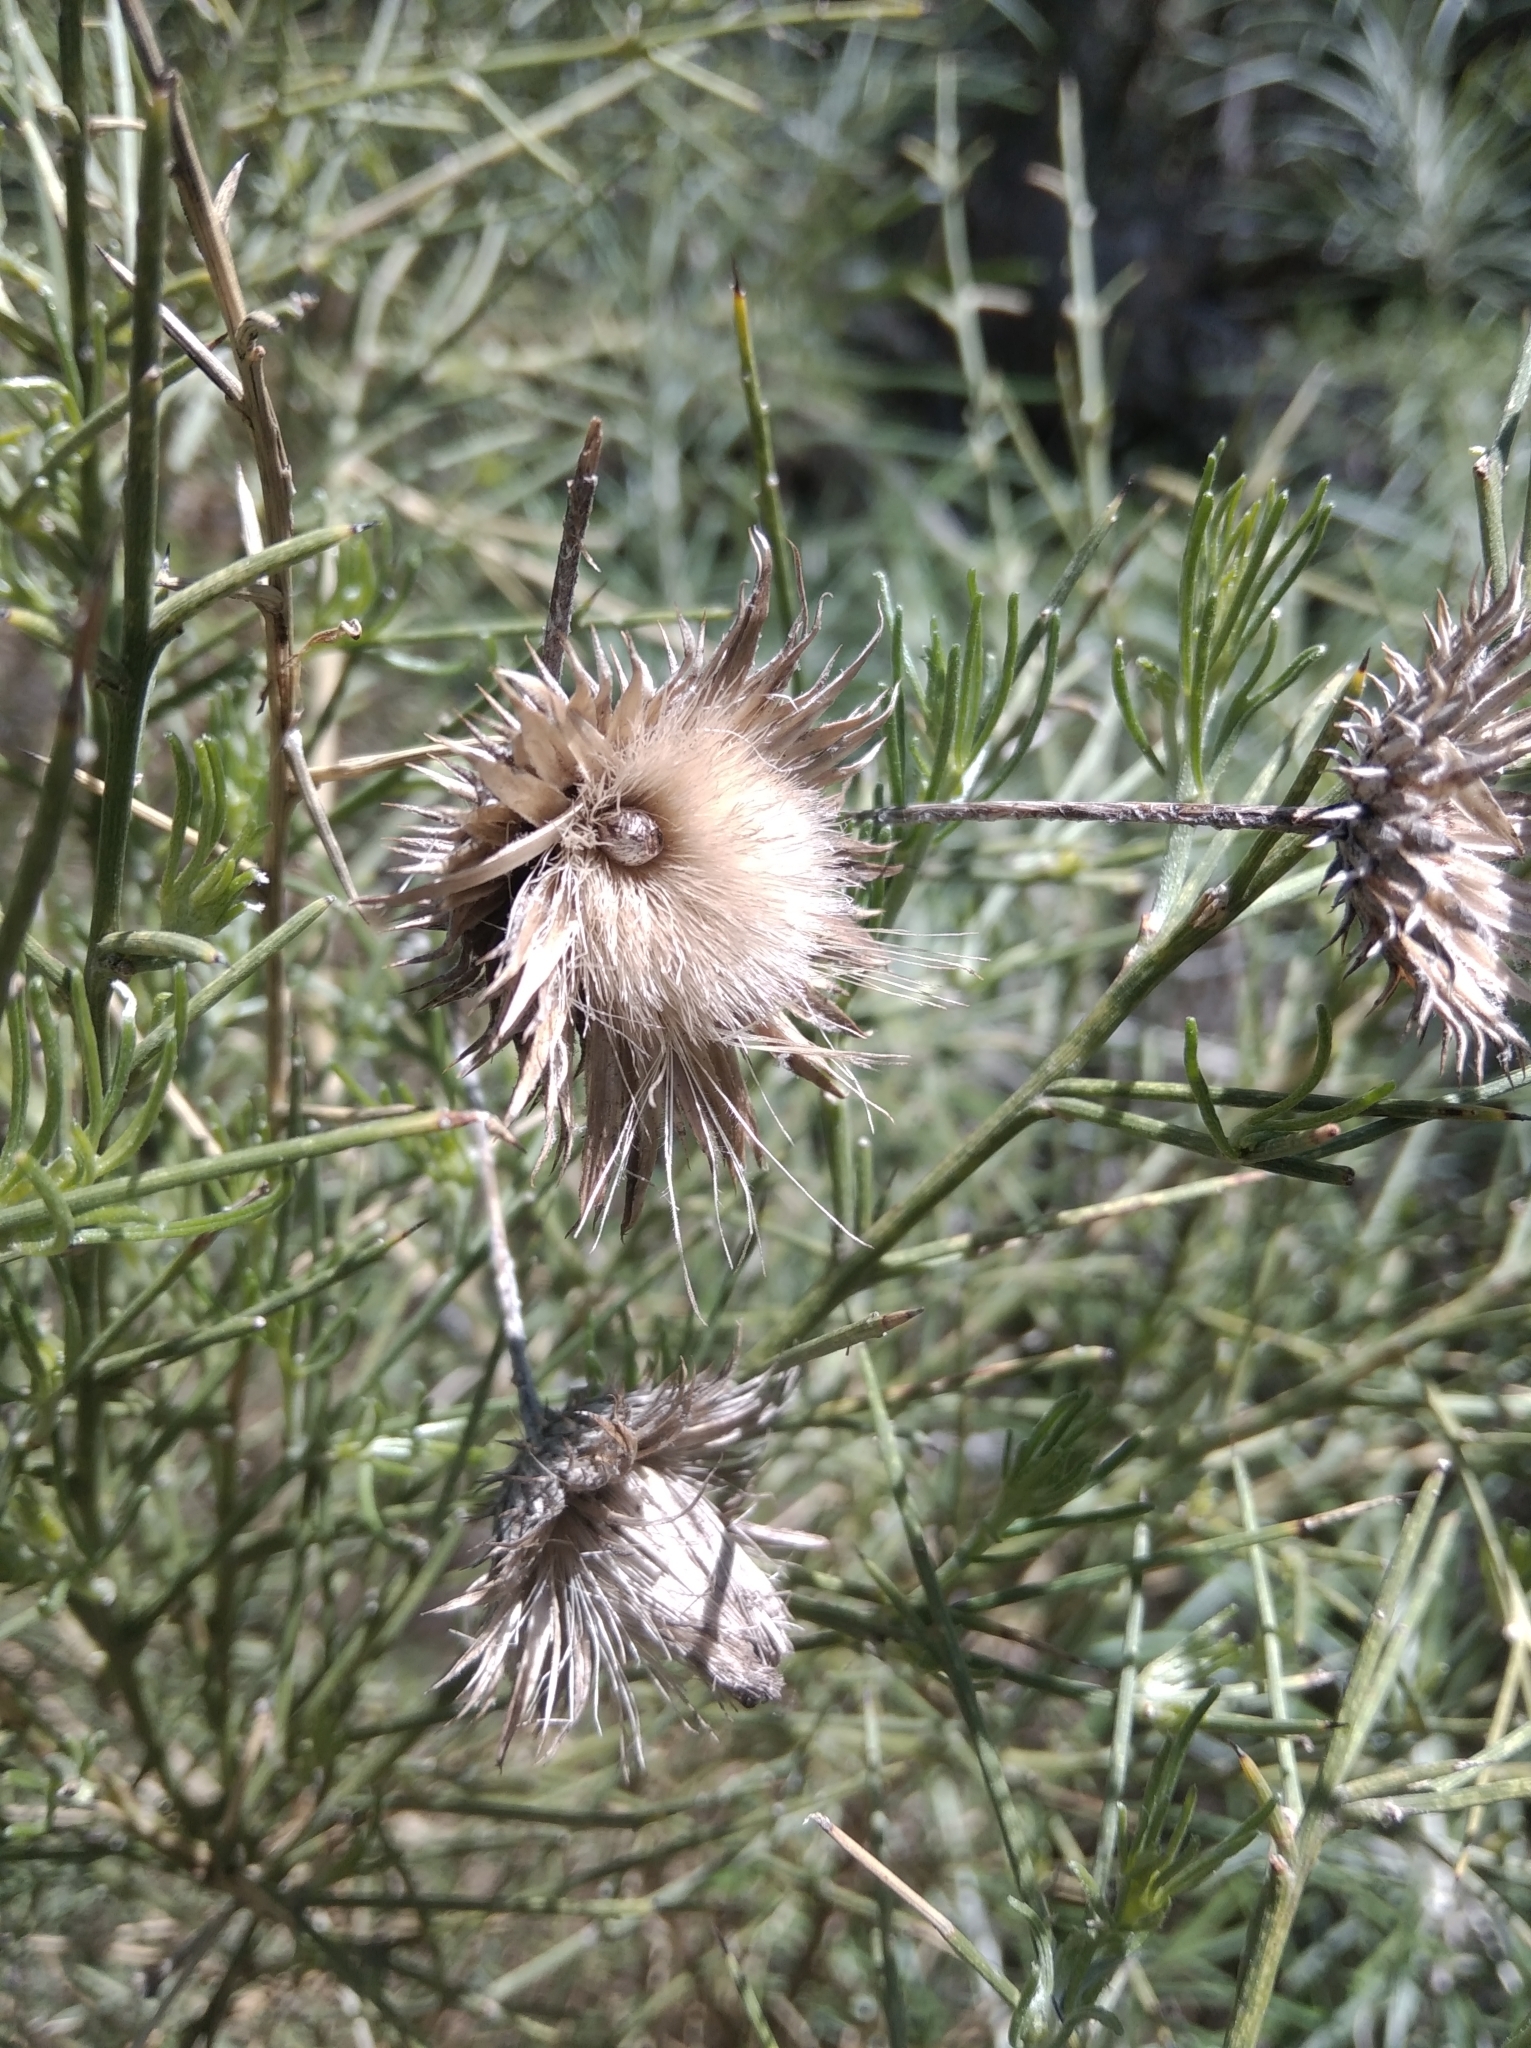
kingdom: Plantae
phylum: Tracheophyta
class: Magnoliopsida
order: Asterales
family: Asteraceae
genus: Ptilostemon
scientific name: Ptilostemon chamaepeuce
